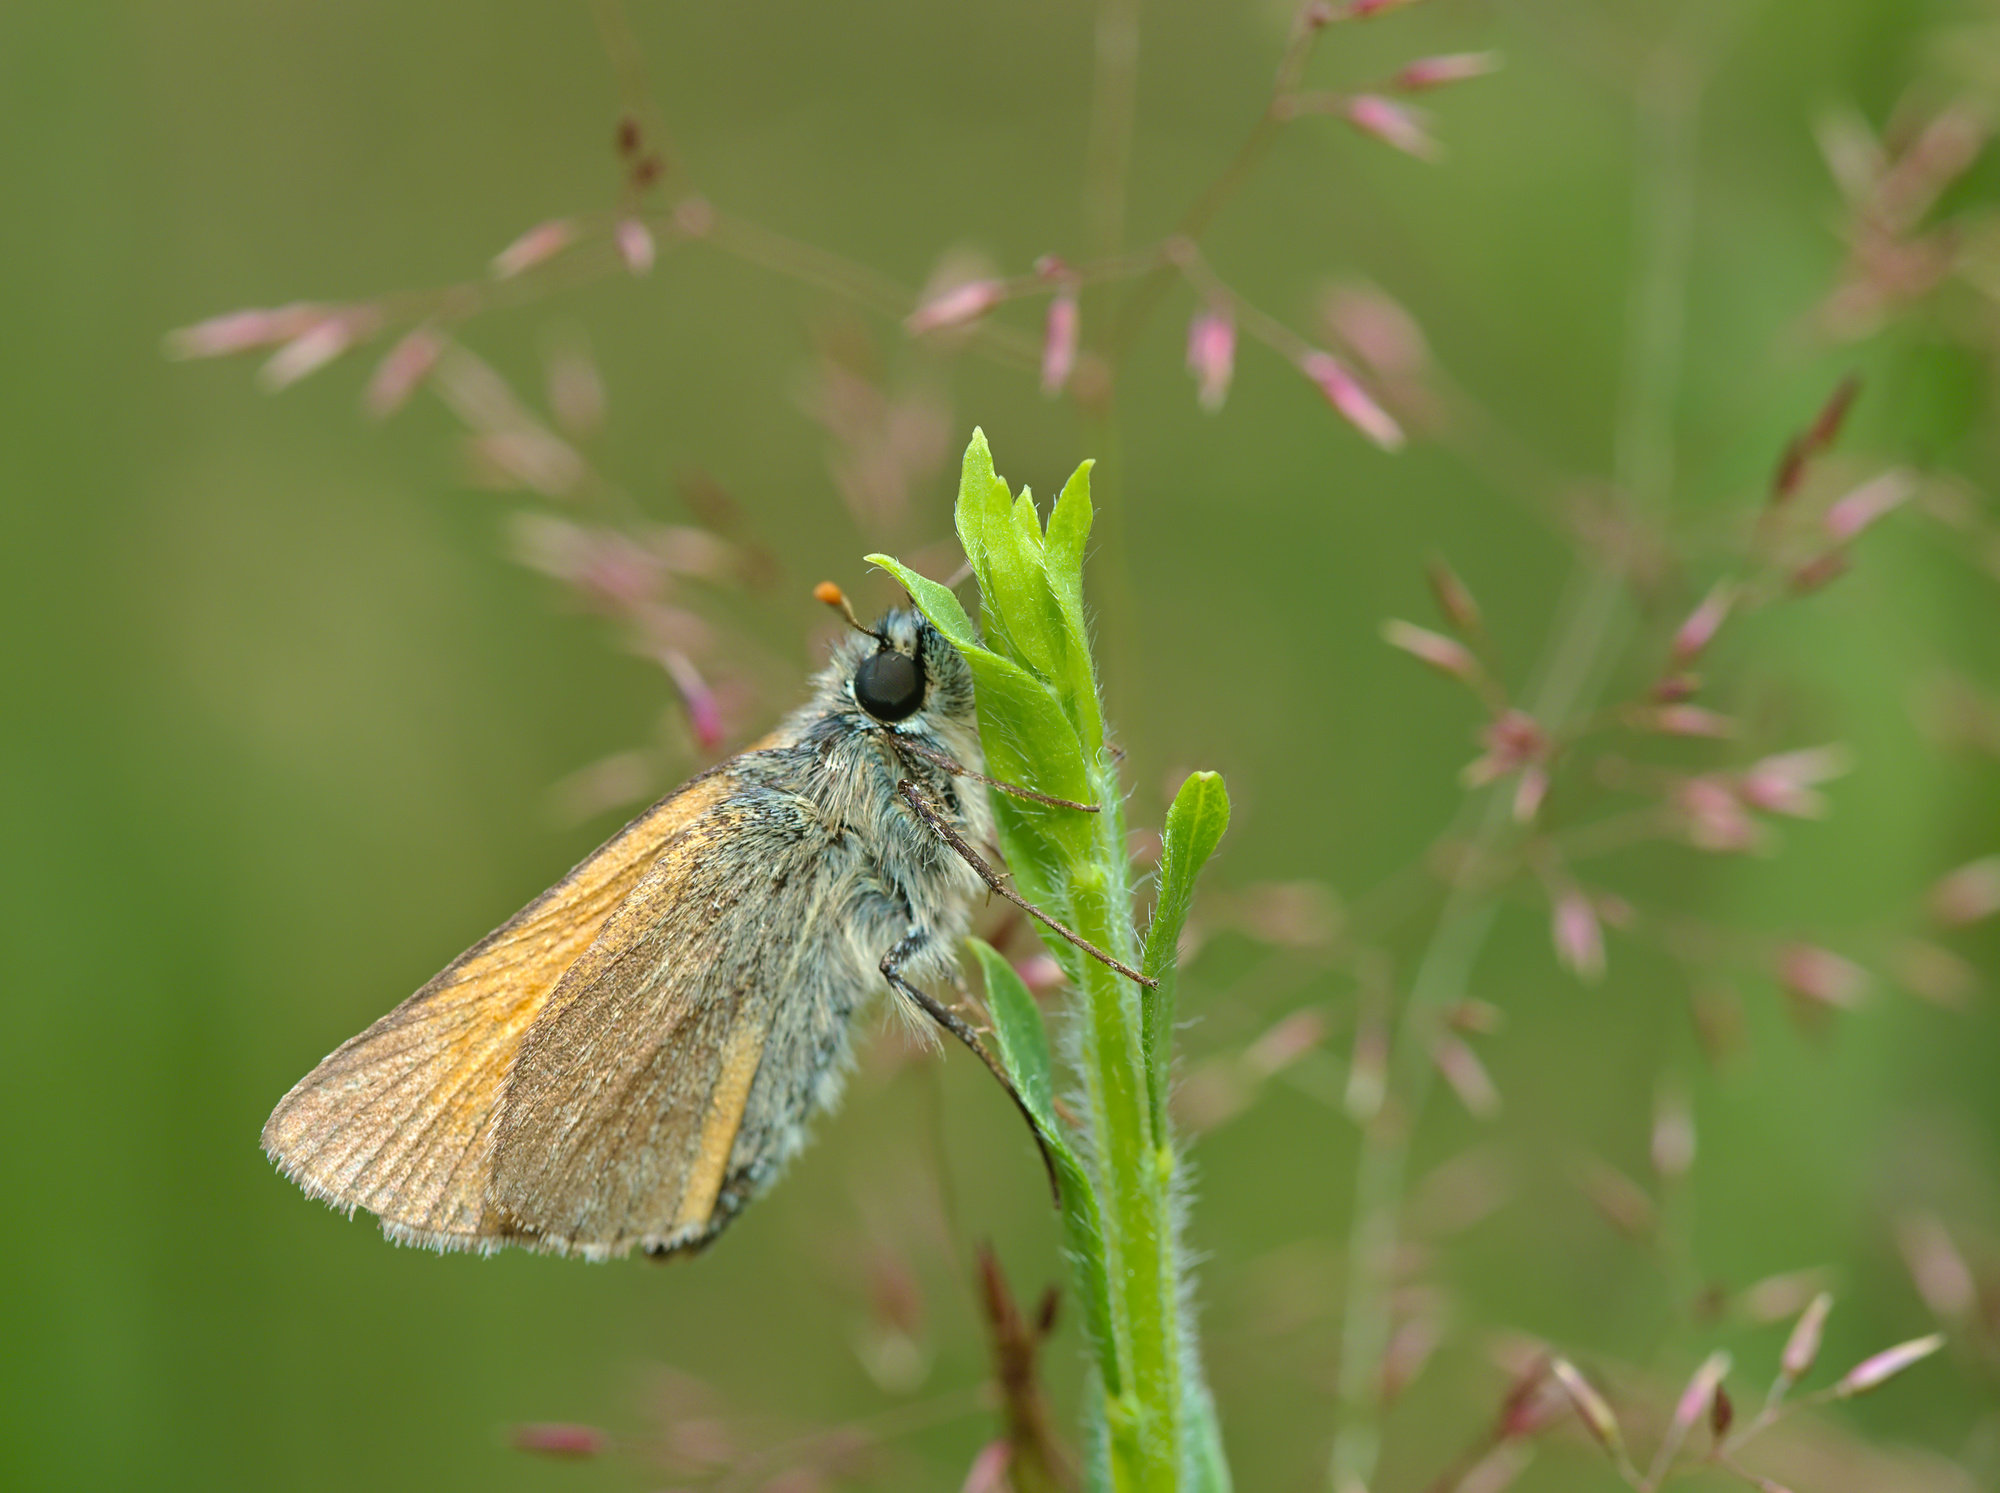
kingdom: Animalia
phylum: Arthropoda
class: Insecta
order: Lepidoptera
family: Hesperiidae
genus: Thymelicus
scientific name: Thymelicus sylvestris
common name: Small skipper
